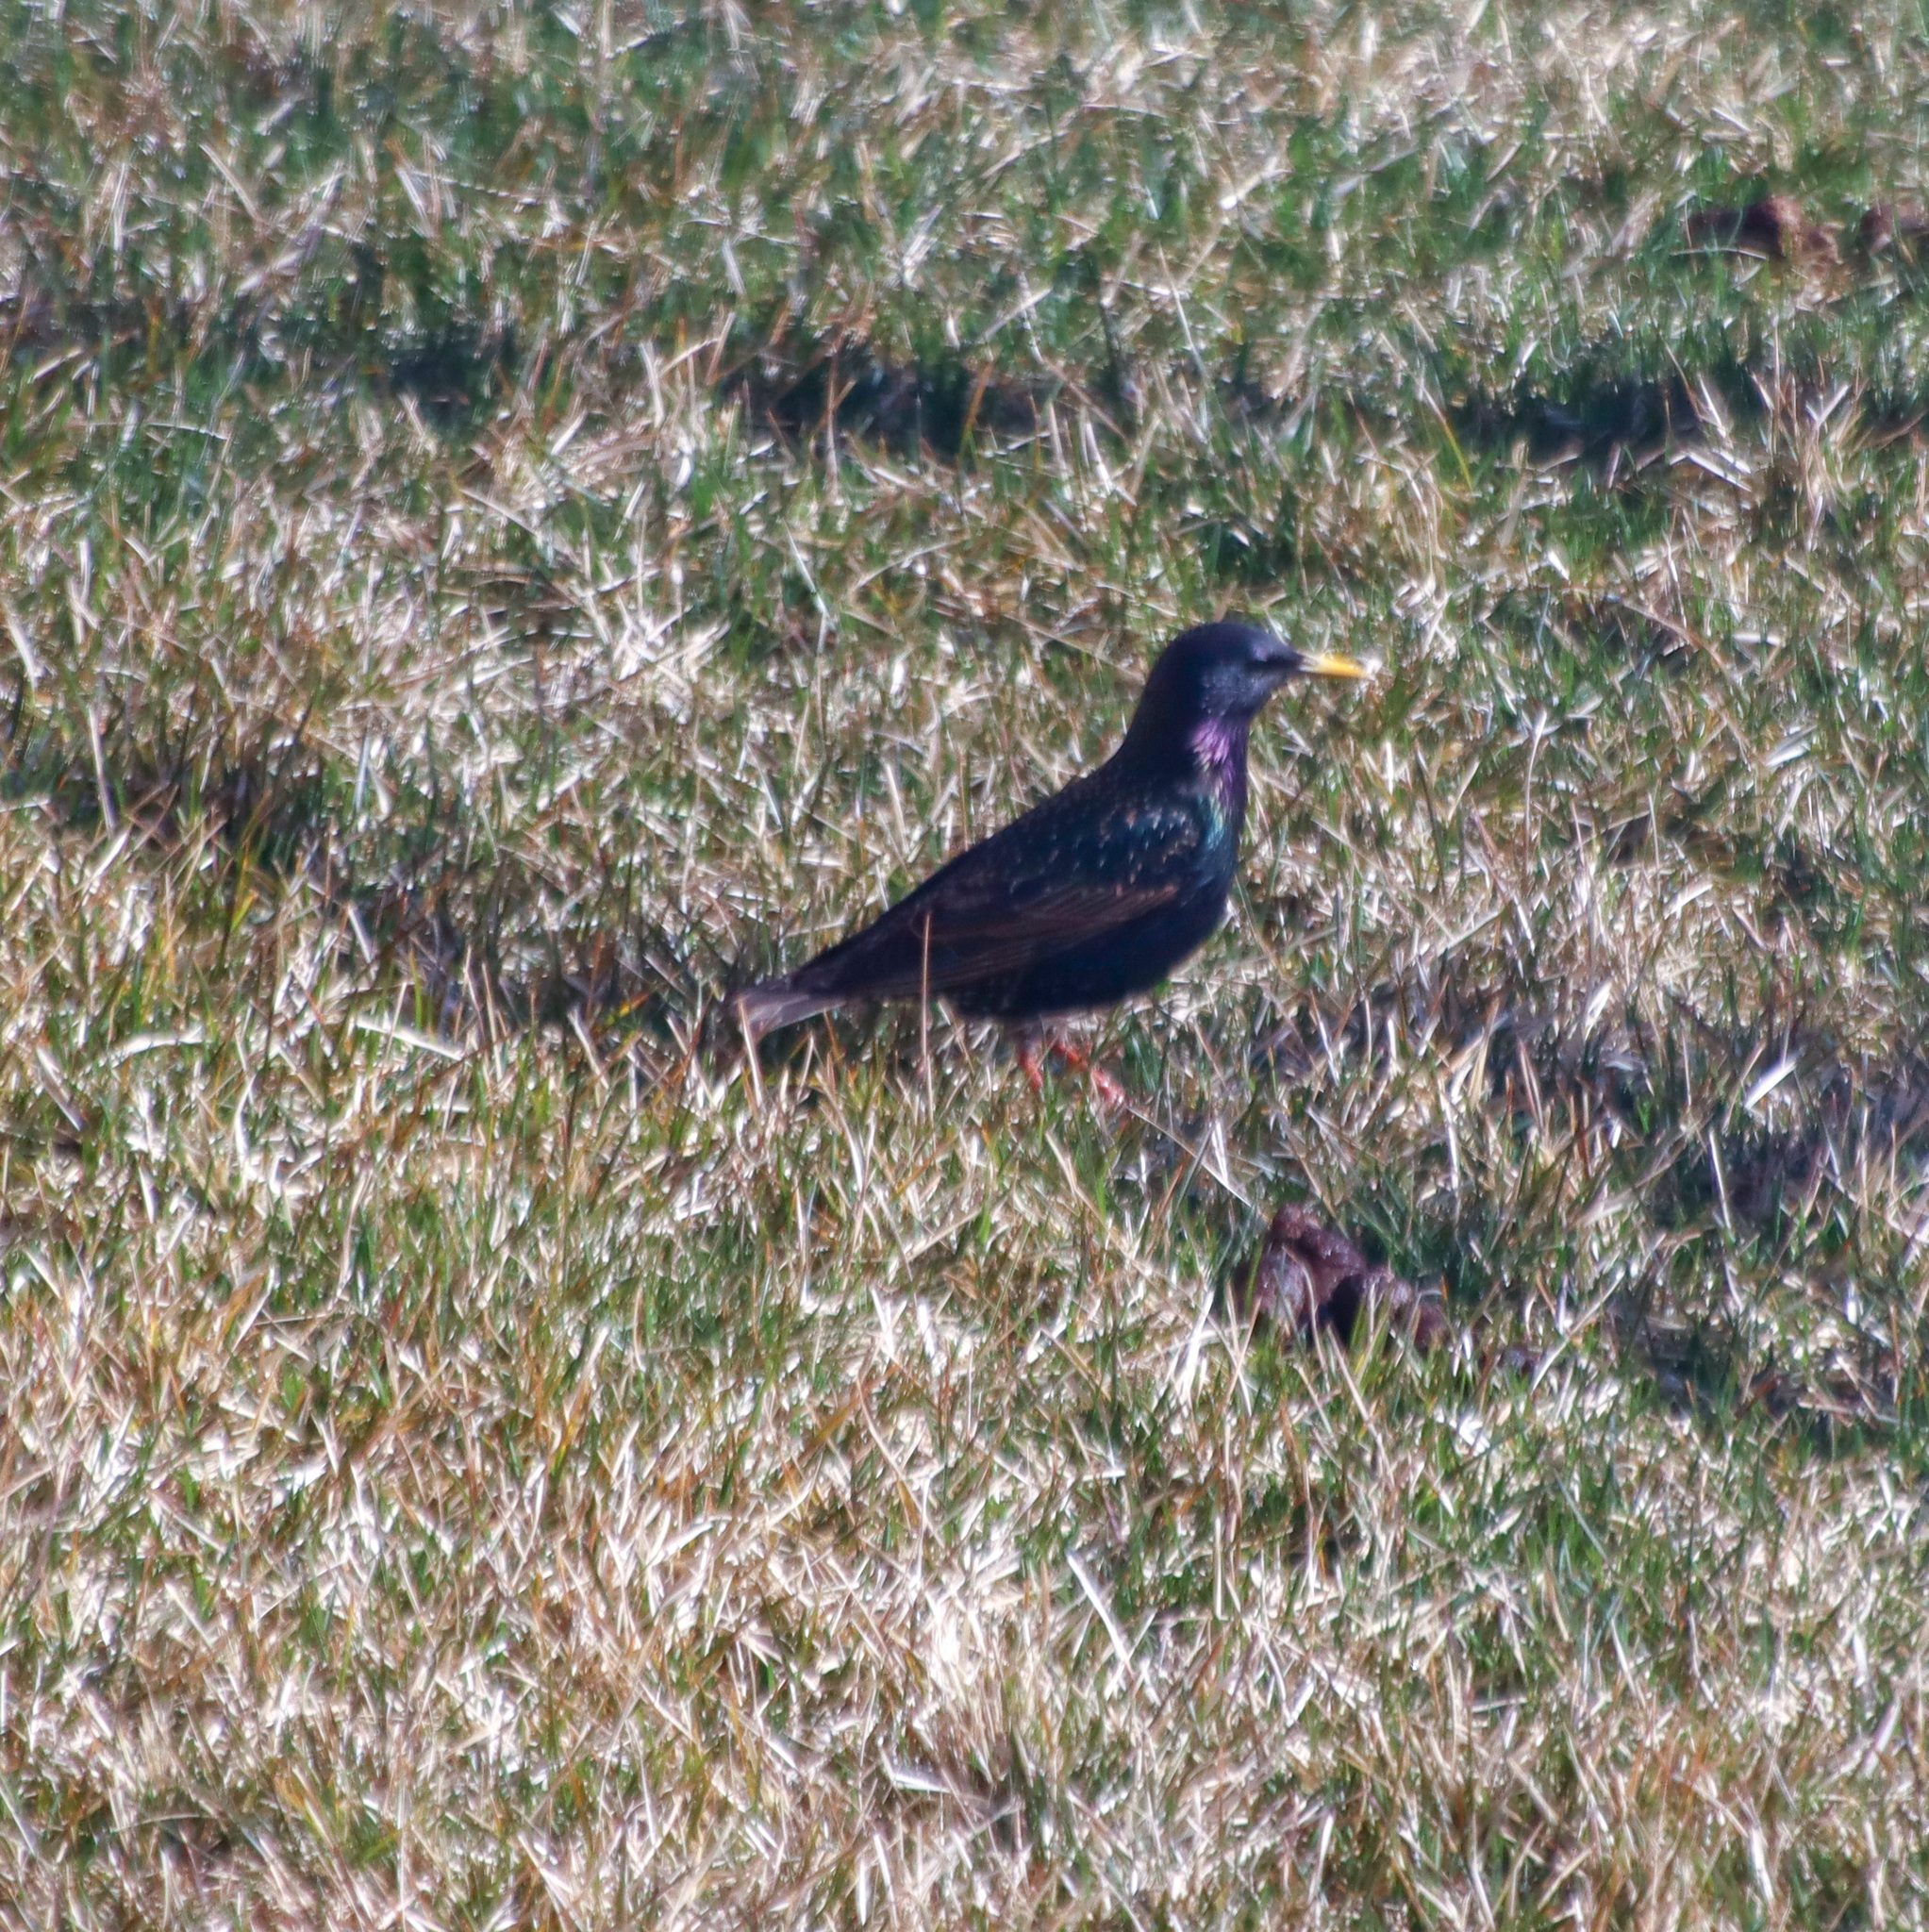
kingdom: Animalia
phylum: Chordata
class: Aves
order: Passeriformes
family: Sturnidae
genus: Sturnus
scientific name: Sturnus vulgaris
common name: Common starling
